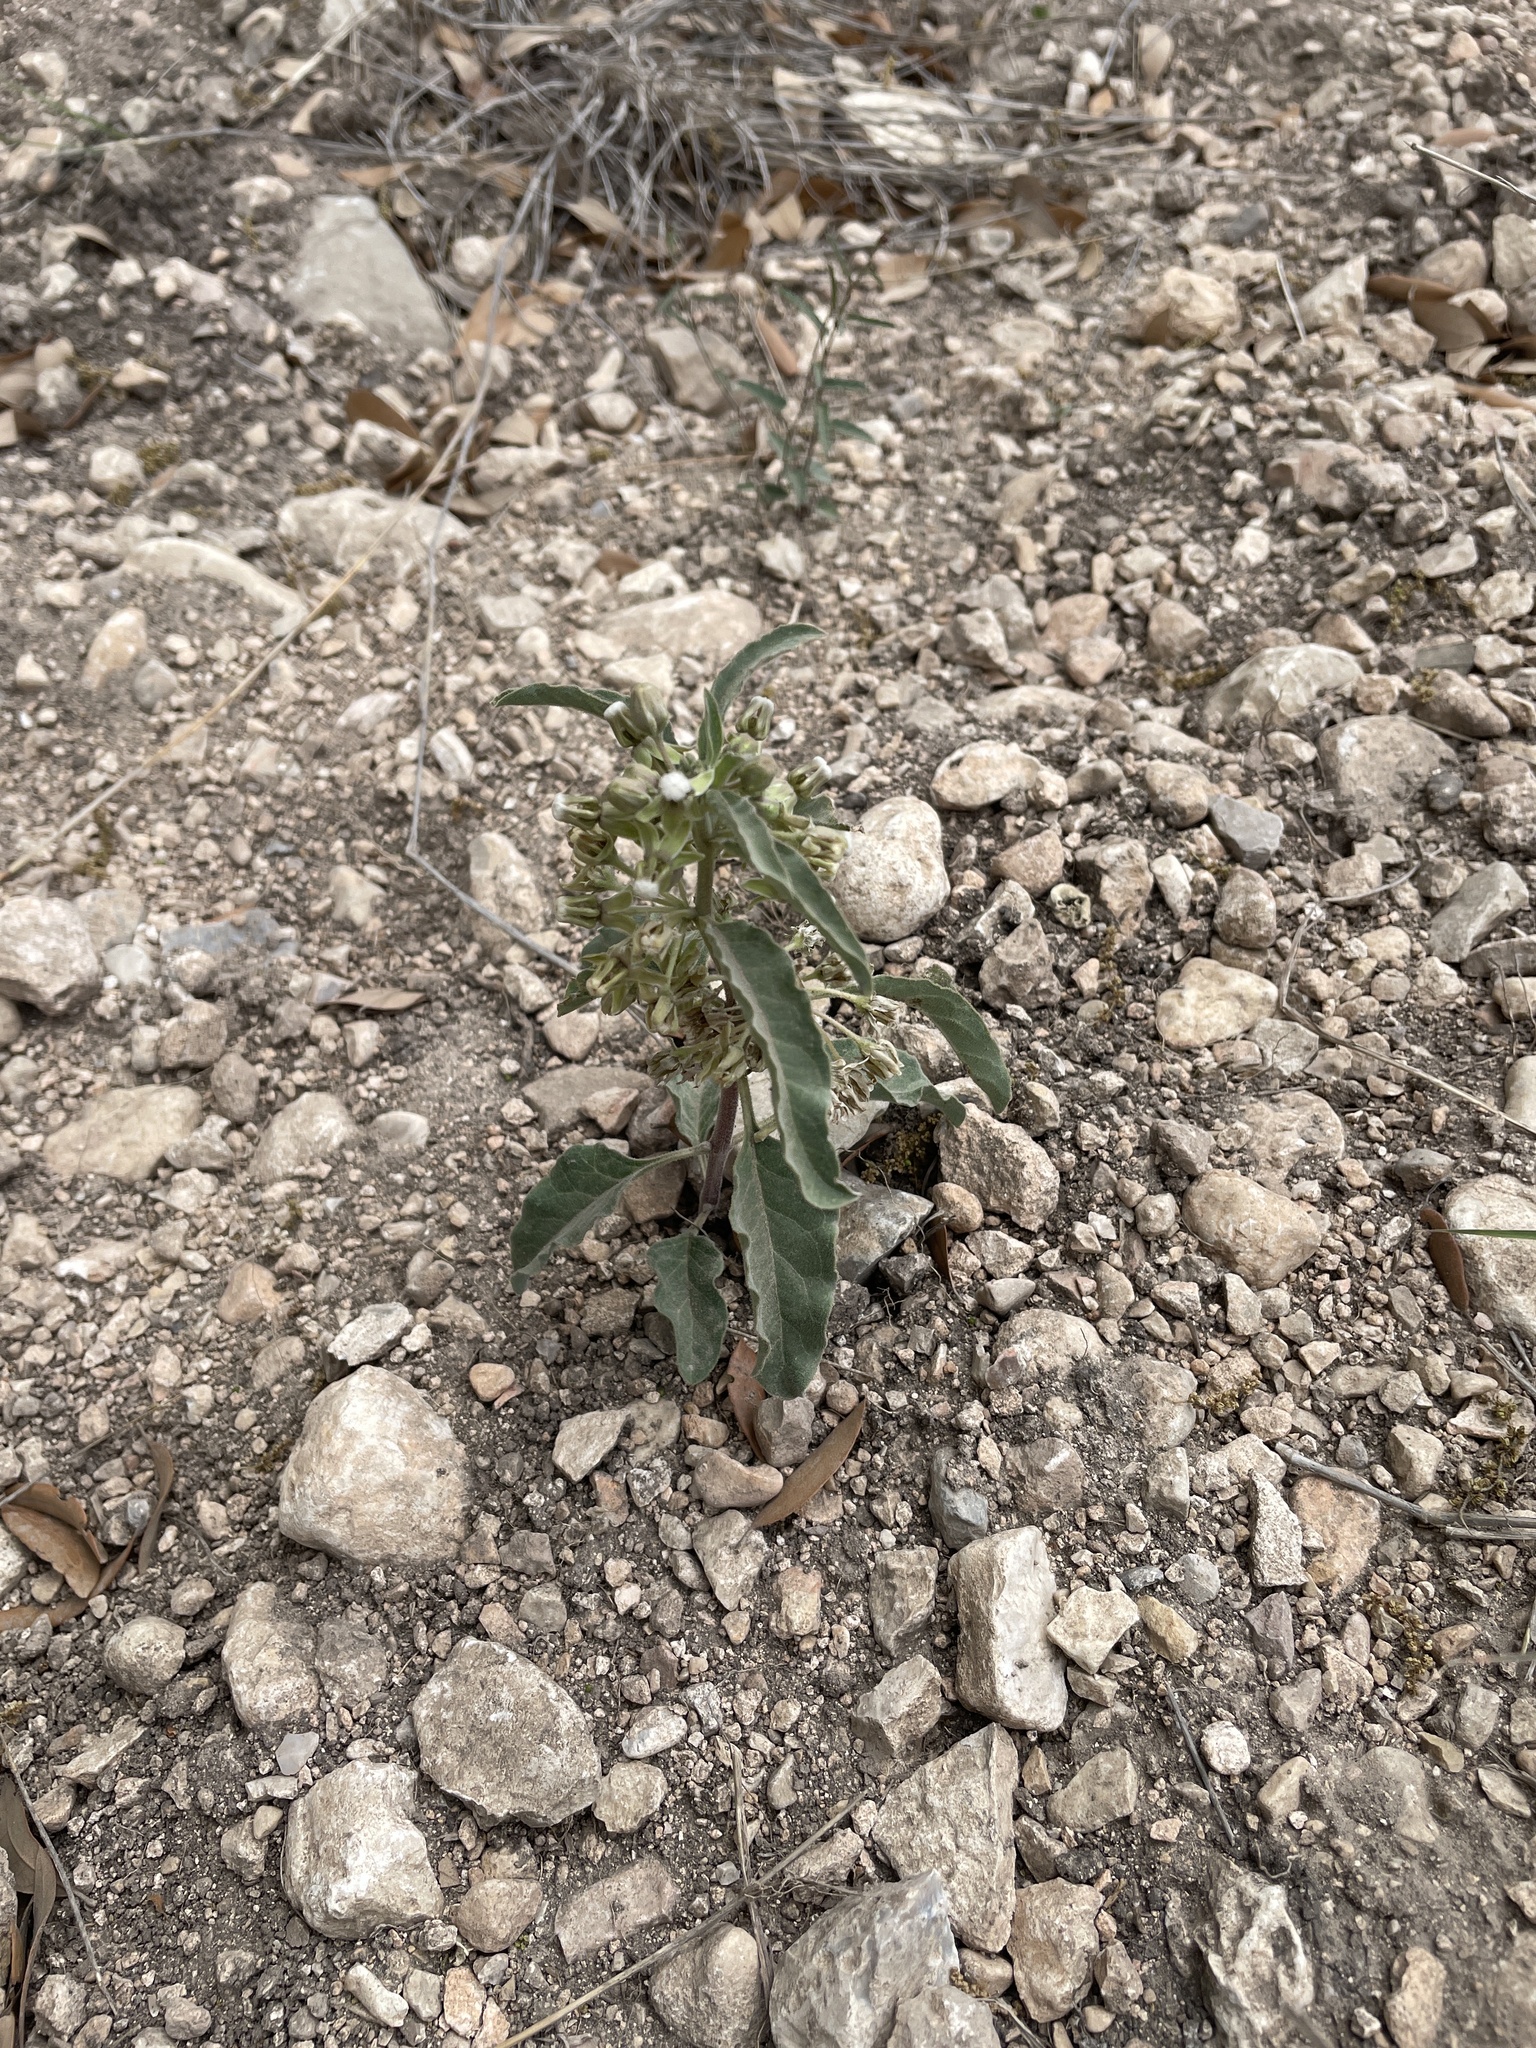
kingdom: Plantae
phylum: Tracheophyta
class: Magnoliopsida
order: Gentianales
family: Apocynaceae
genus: Asclepias
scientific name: Asclepias oenotheroides
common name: Zizotes milkweed
